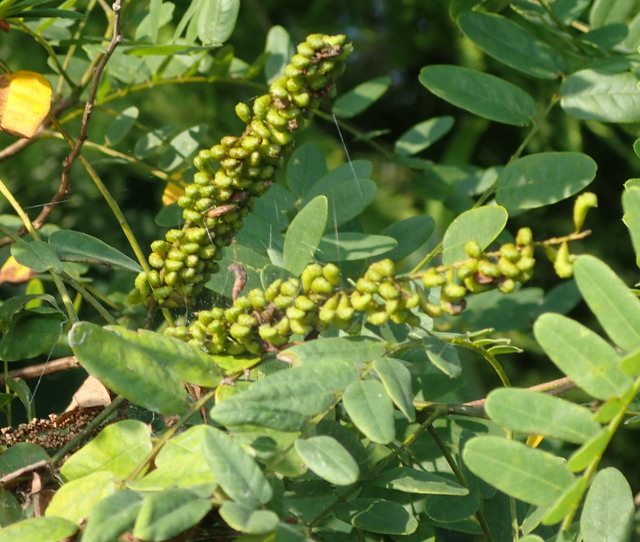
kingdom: Plantae
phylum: Tracheophyta
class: Magnoliopsida
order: Fabales
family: Fabaceae
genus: Amorpha
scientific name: Amorpha fruticosa
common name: False indigo
